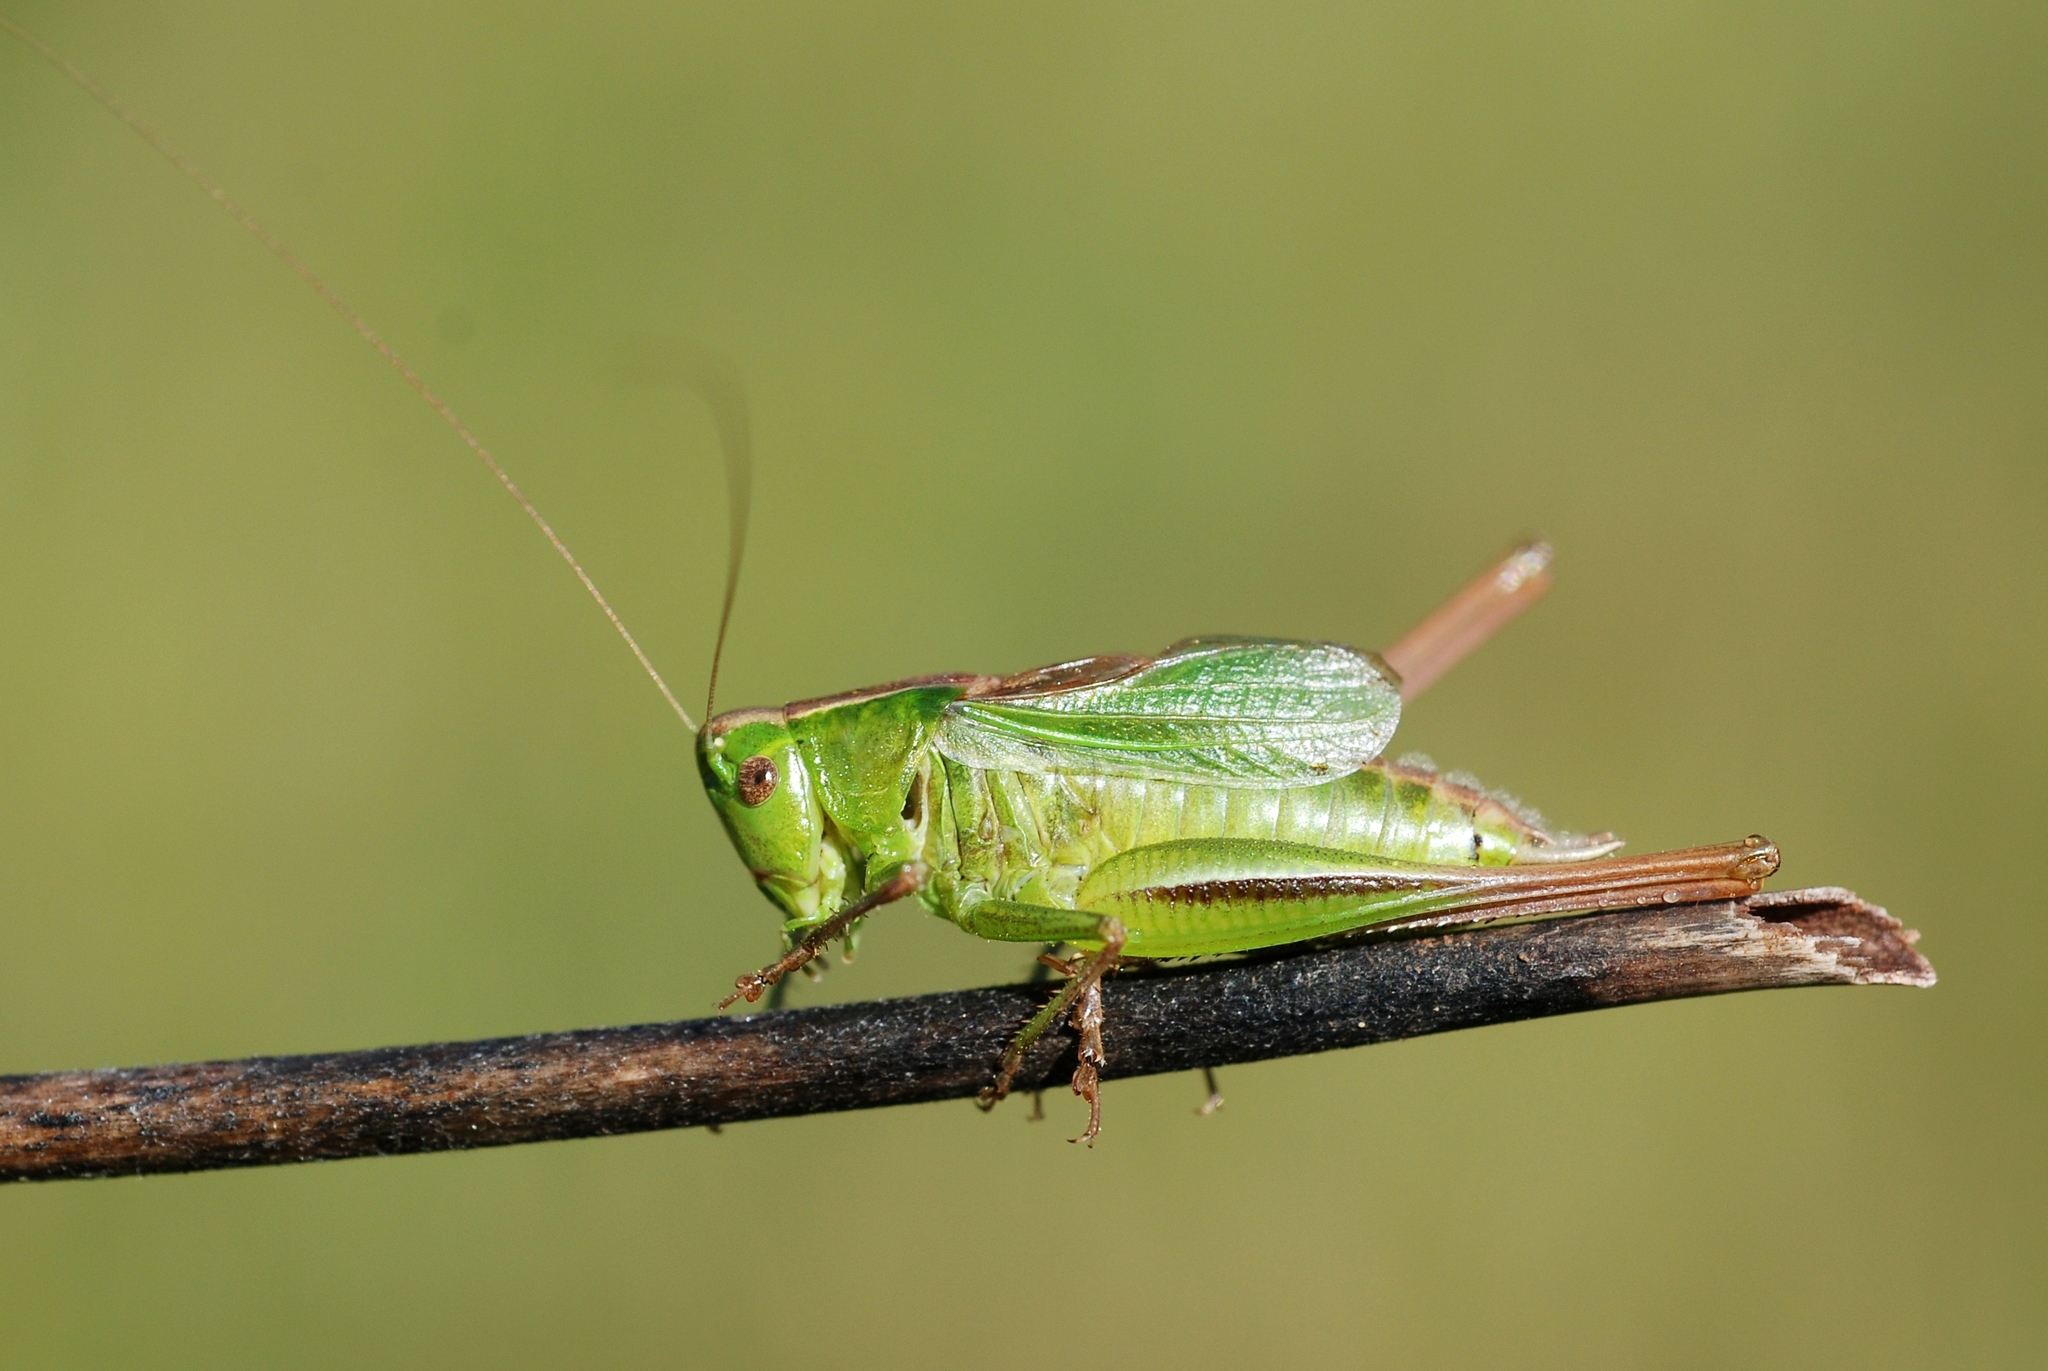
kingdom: Animalia
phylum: Arthropoda
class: Insecta
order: Orthoptera
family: Tettigoniidae
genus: Bicolorana
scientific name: Bicolorana bicolor
